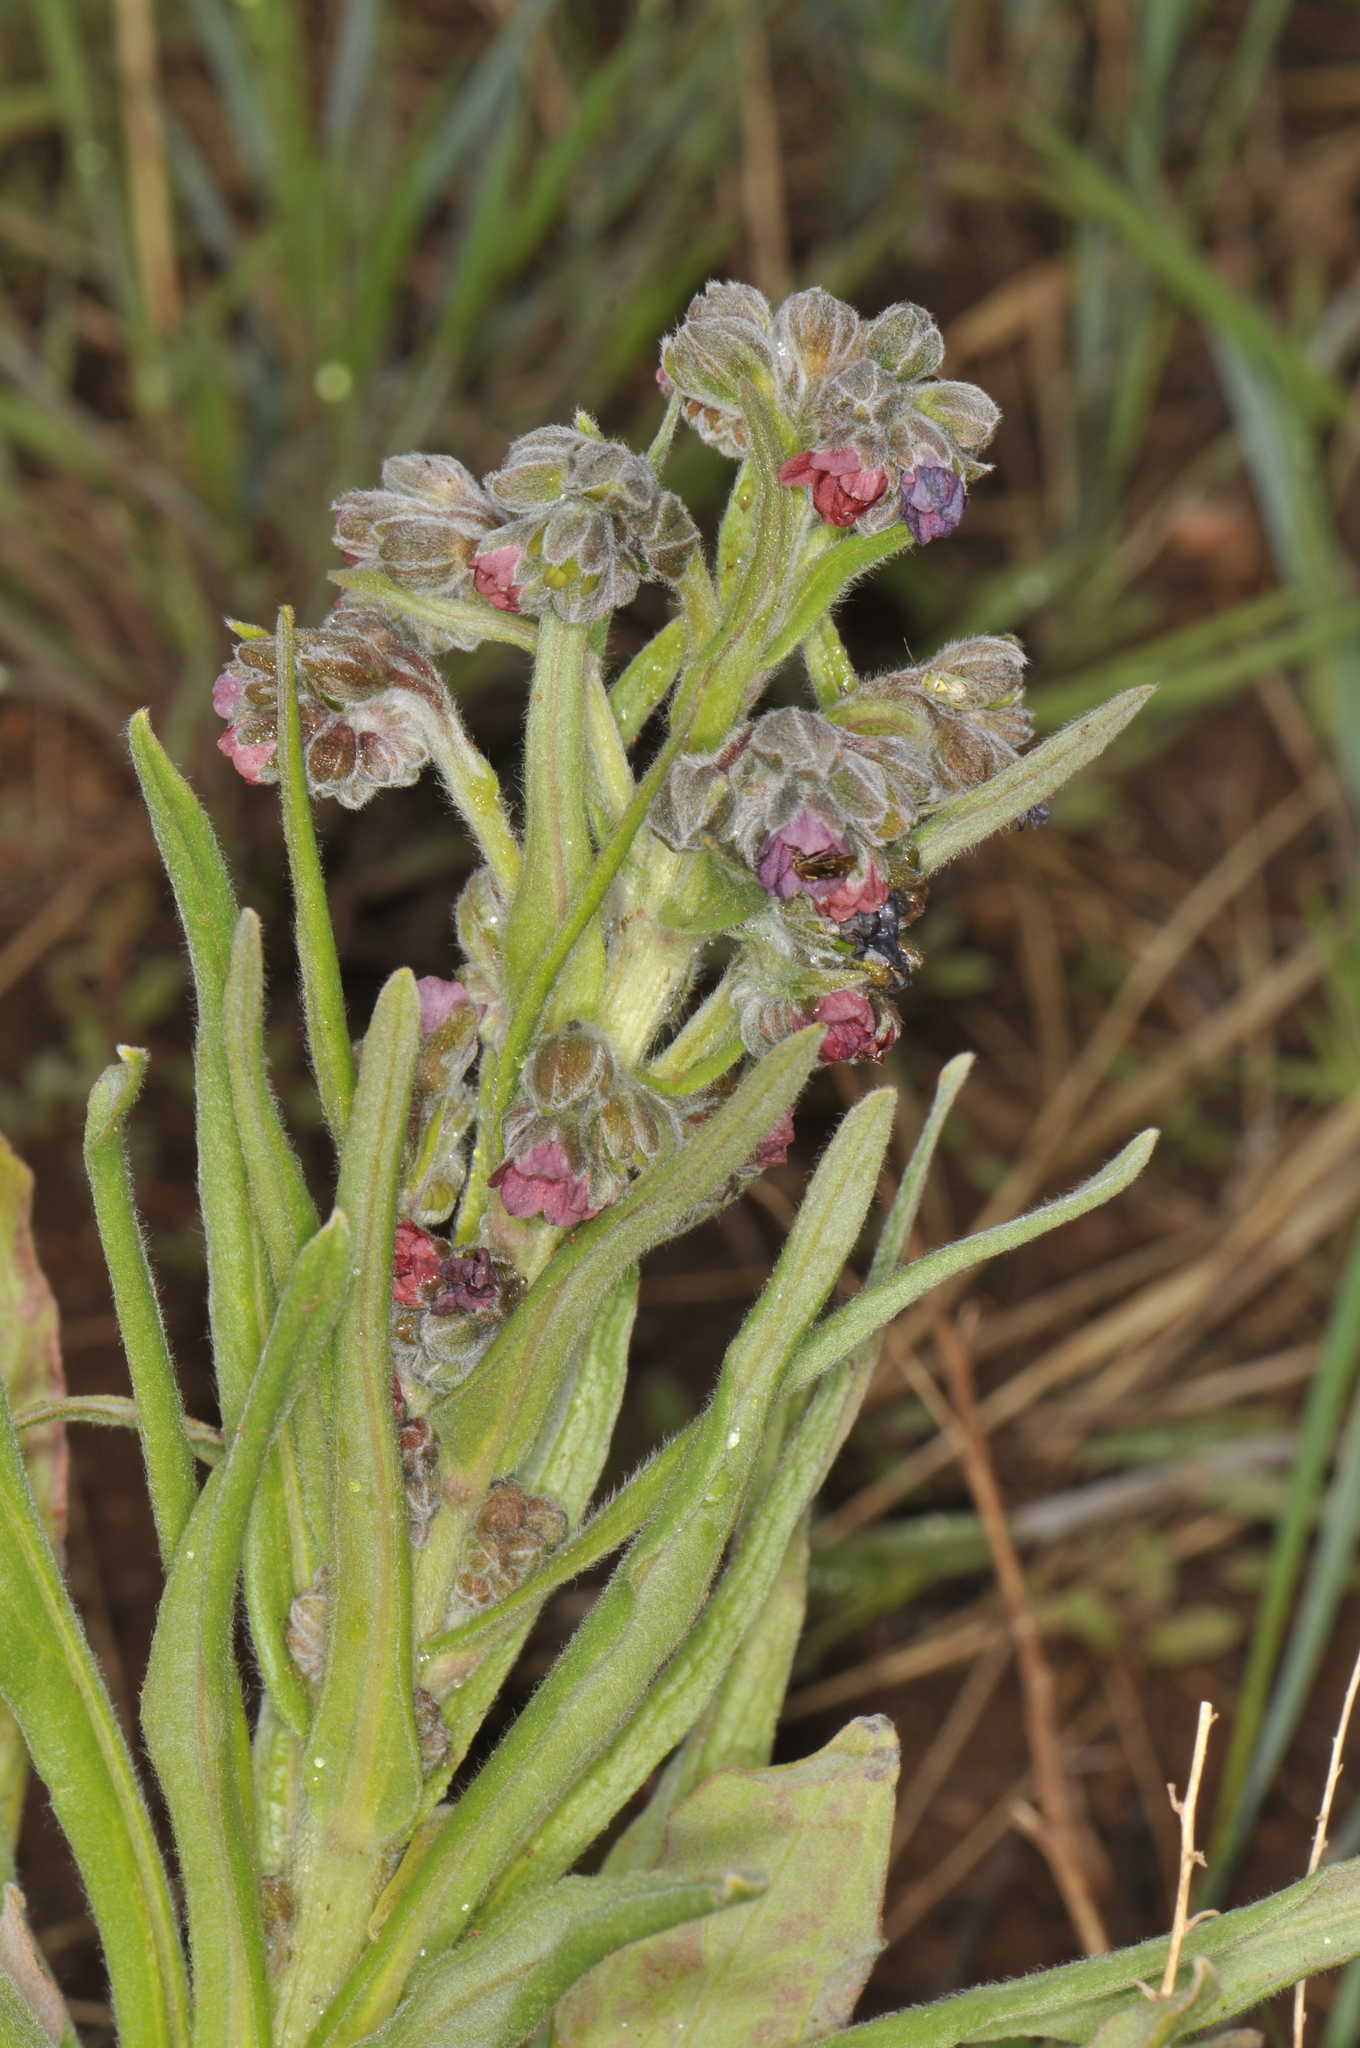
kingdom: Plantae
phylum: Tracheophyta
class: Magnoliopsida
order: Boraginales
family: Boraginaceae
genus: Cynoglossum
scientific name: Cynoglossum officinale
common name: Hound's-tongue
